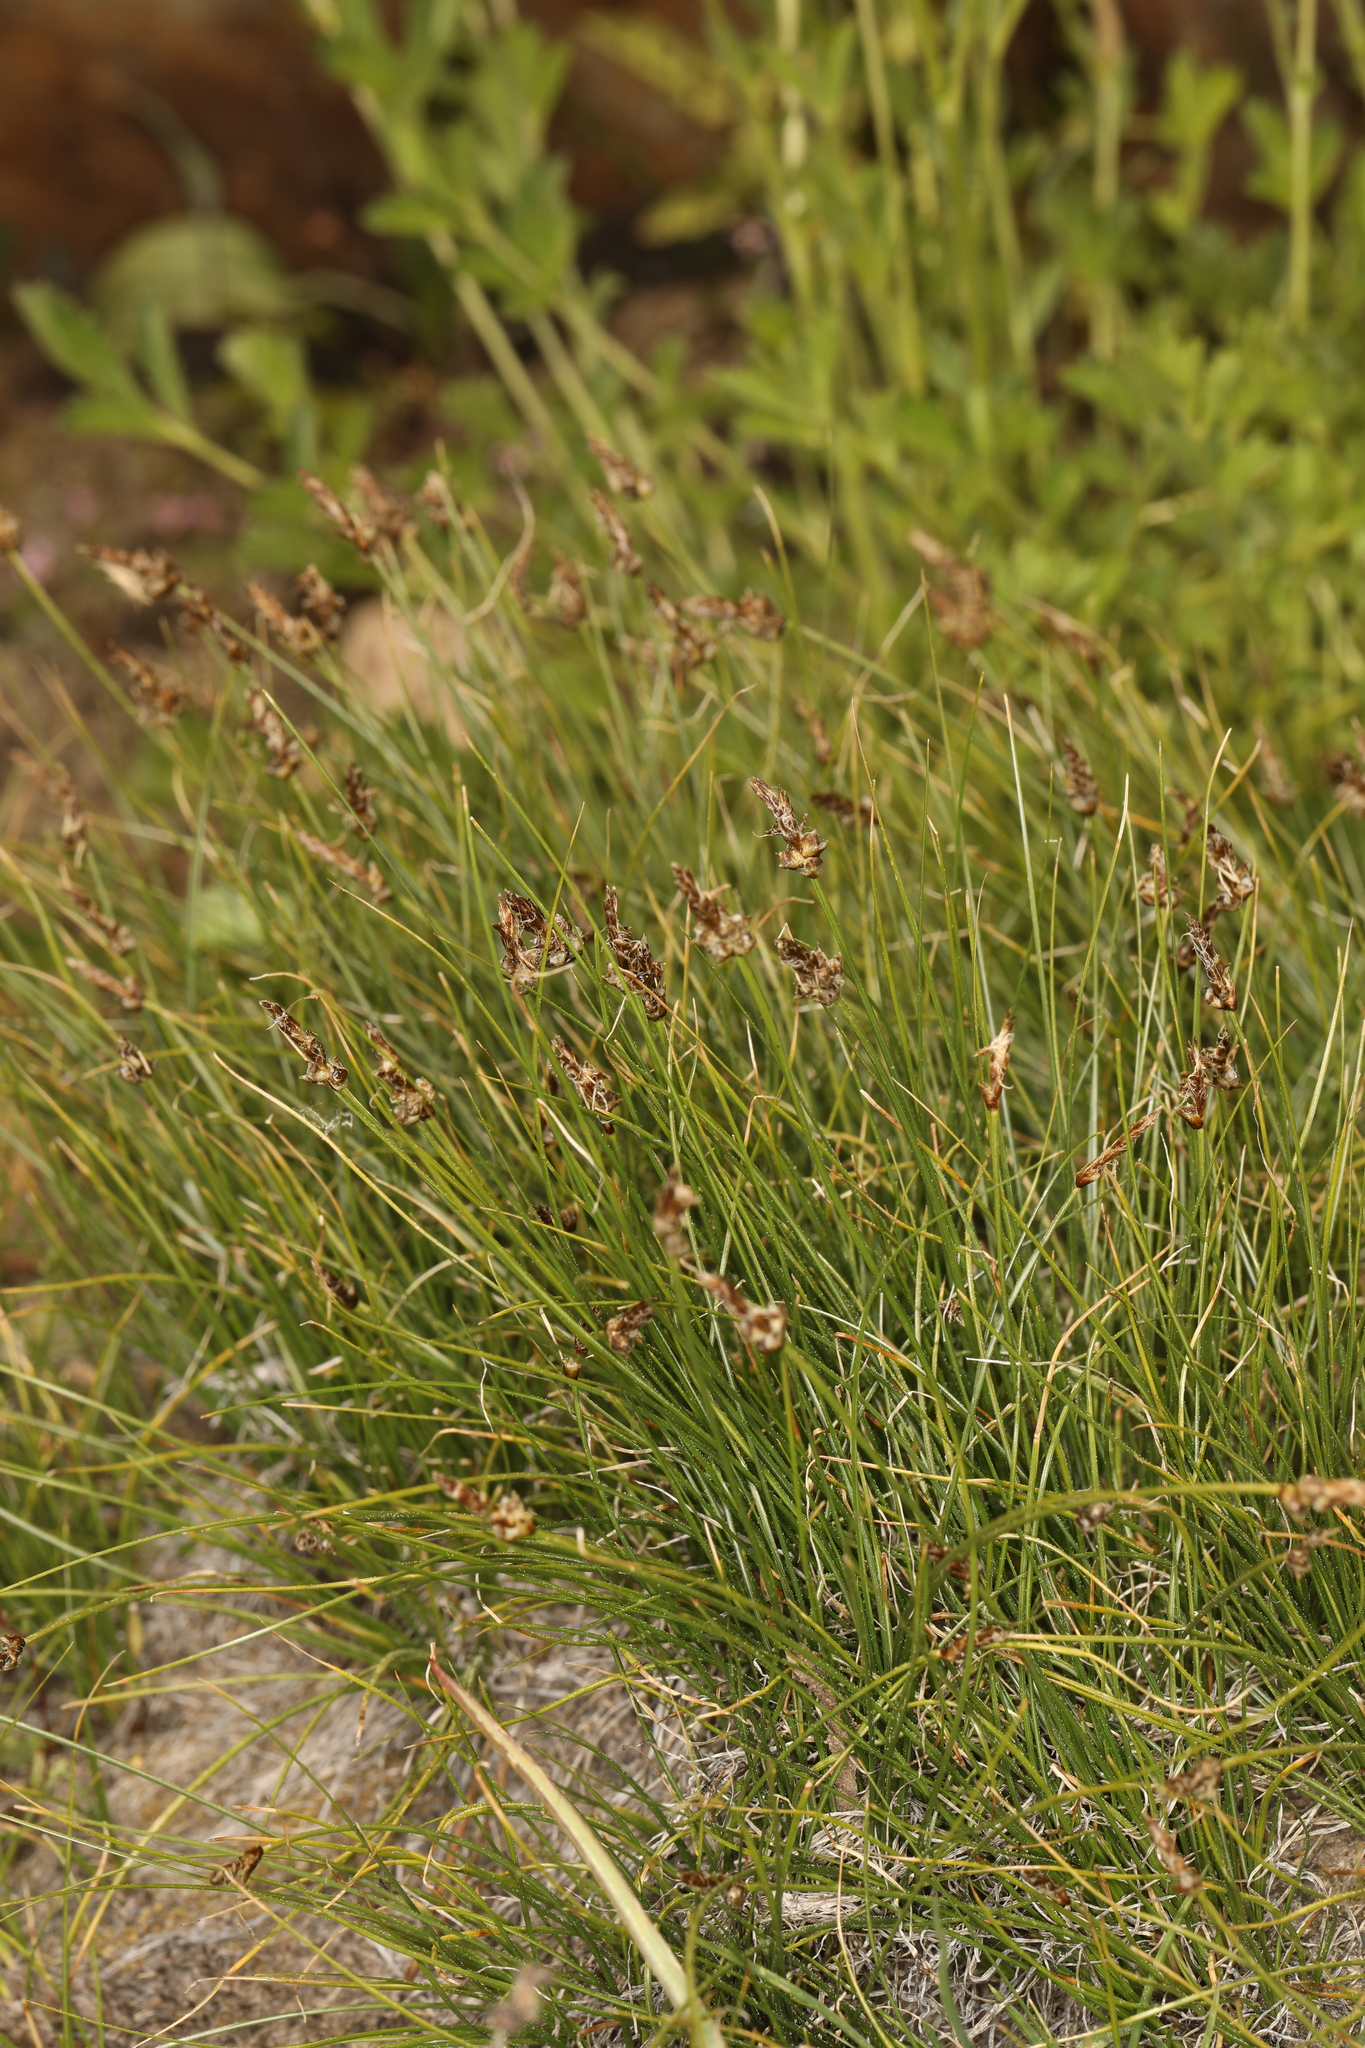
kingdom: Plantae
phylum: Tracheophyta
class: Liliopsida
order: Poales
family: Cyperaceae
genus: Carex
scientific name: Carex filifolia
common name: Threadleaf sedge
